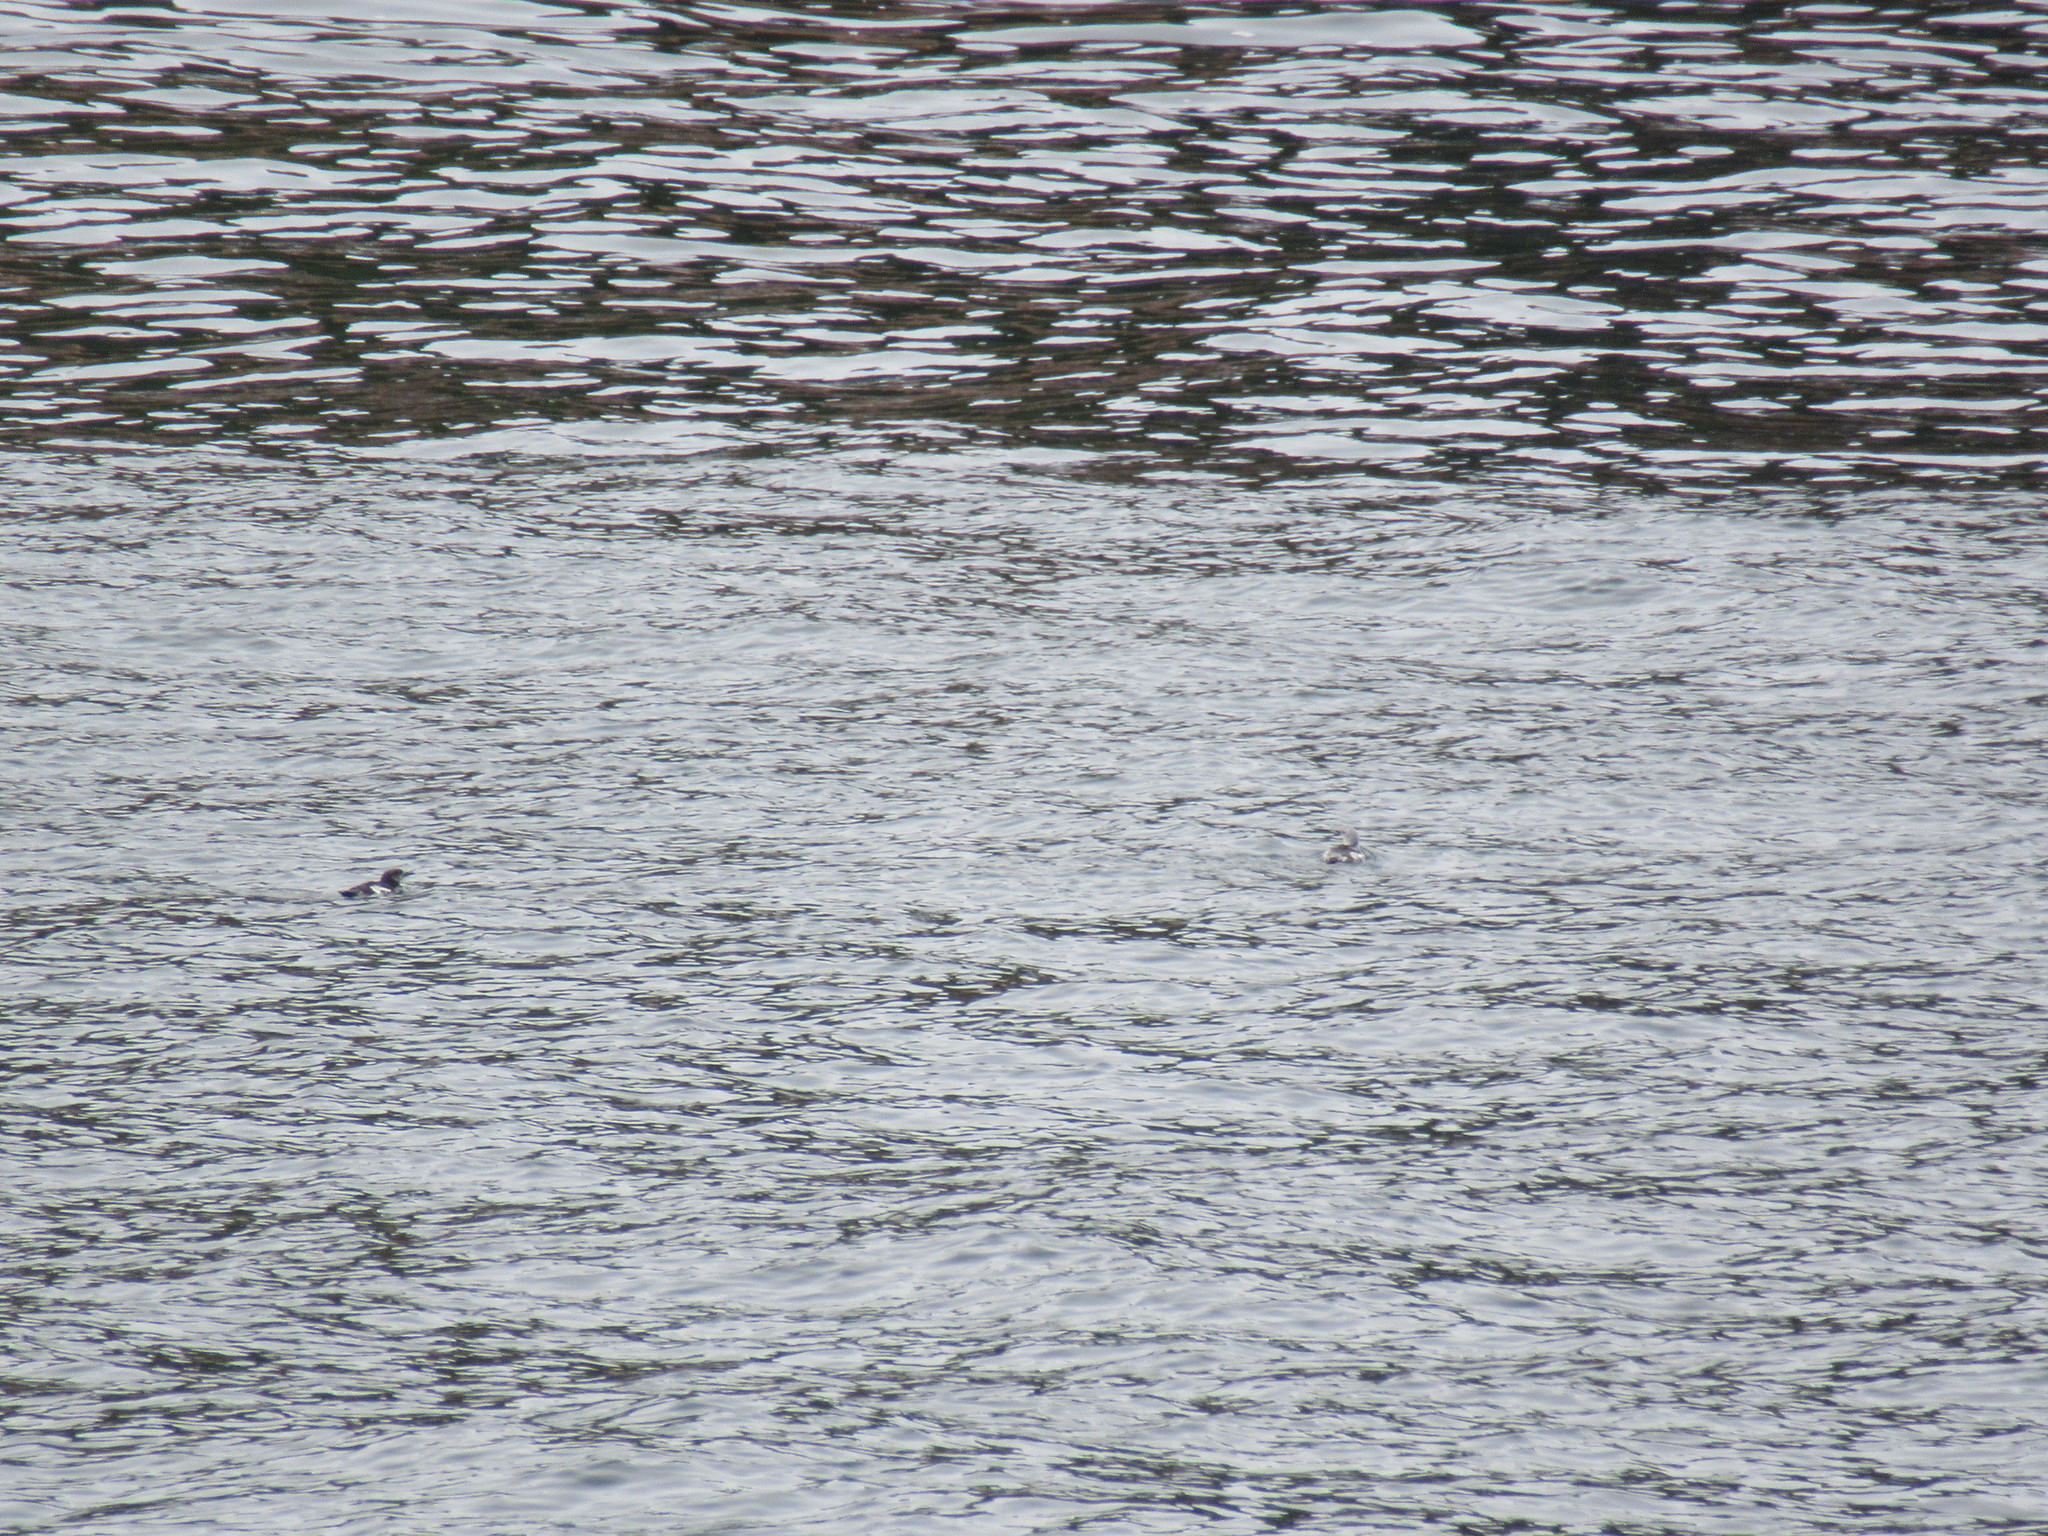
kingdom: Animalia
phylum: Chordata
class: Aves
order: Charadriiformes
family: Alcidae
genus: Cepphus
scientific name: Cepphus grylle
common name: Black guillemot
